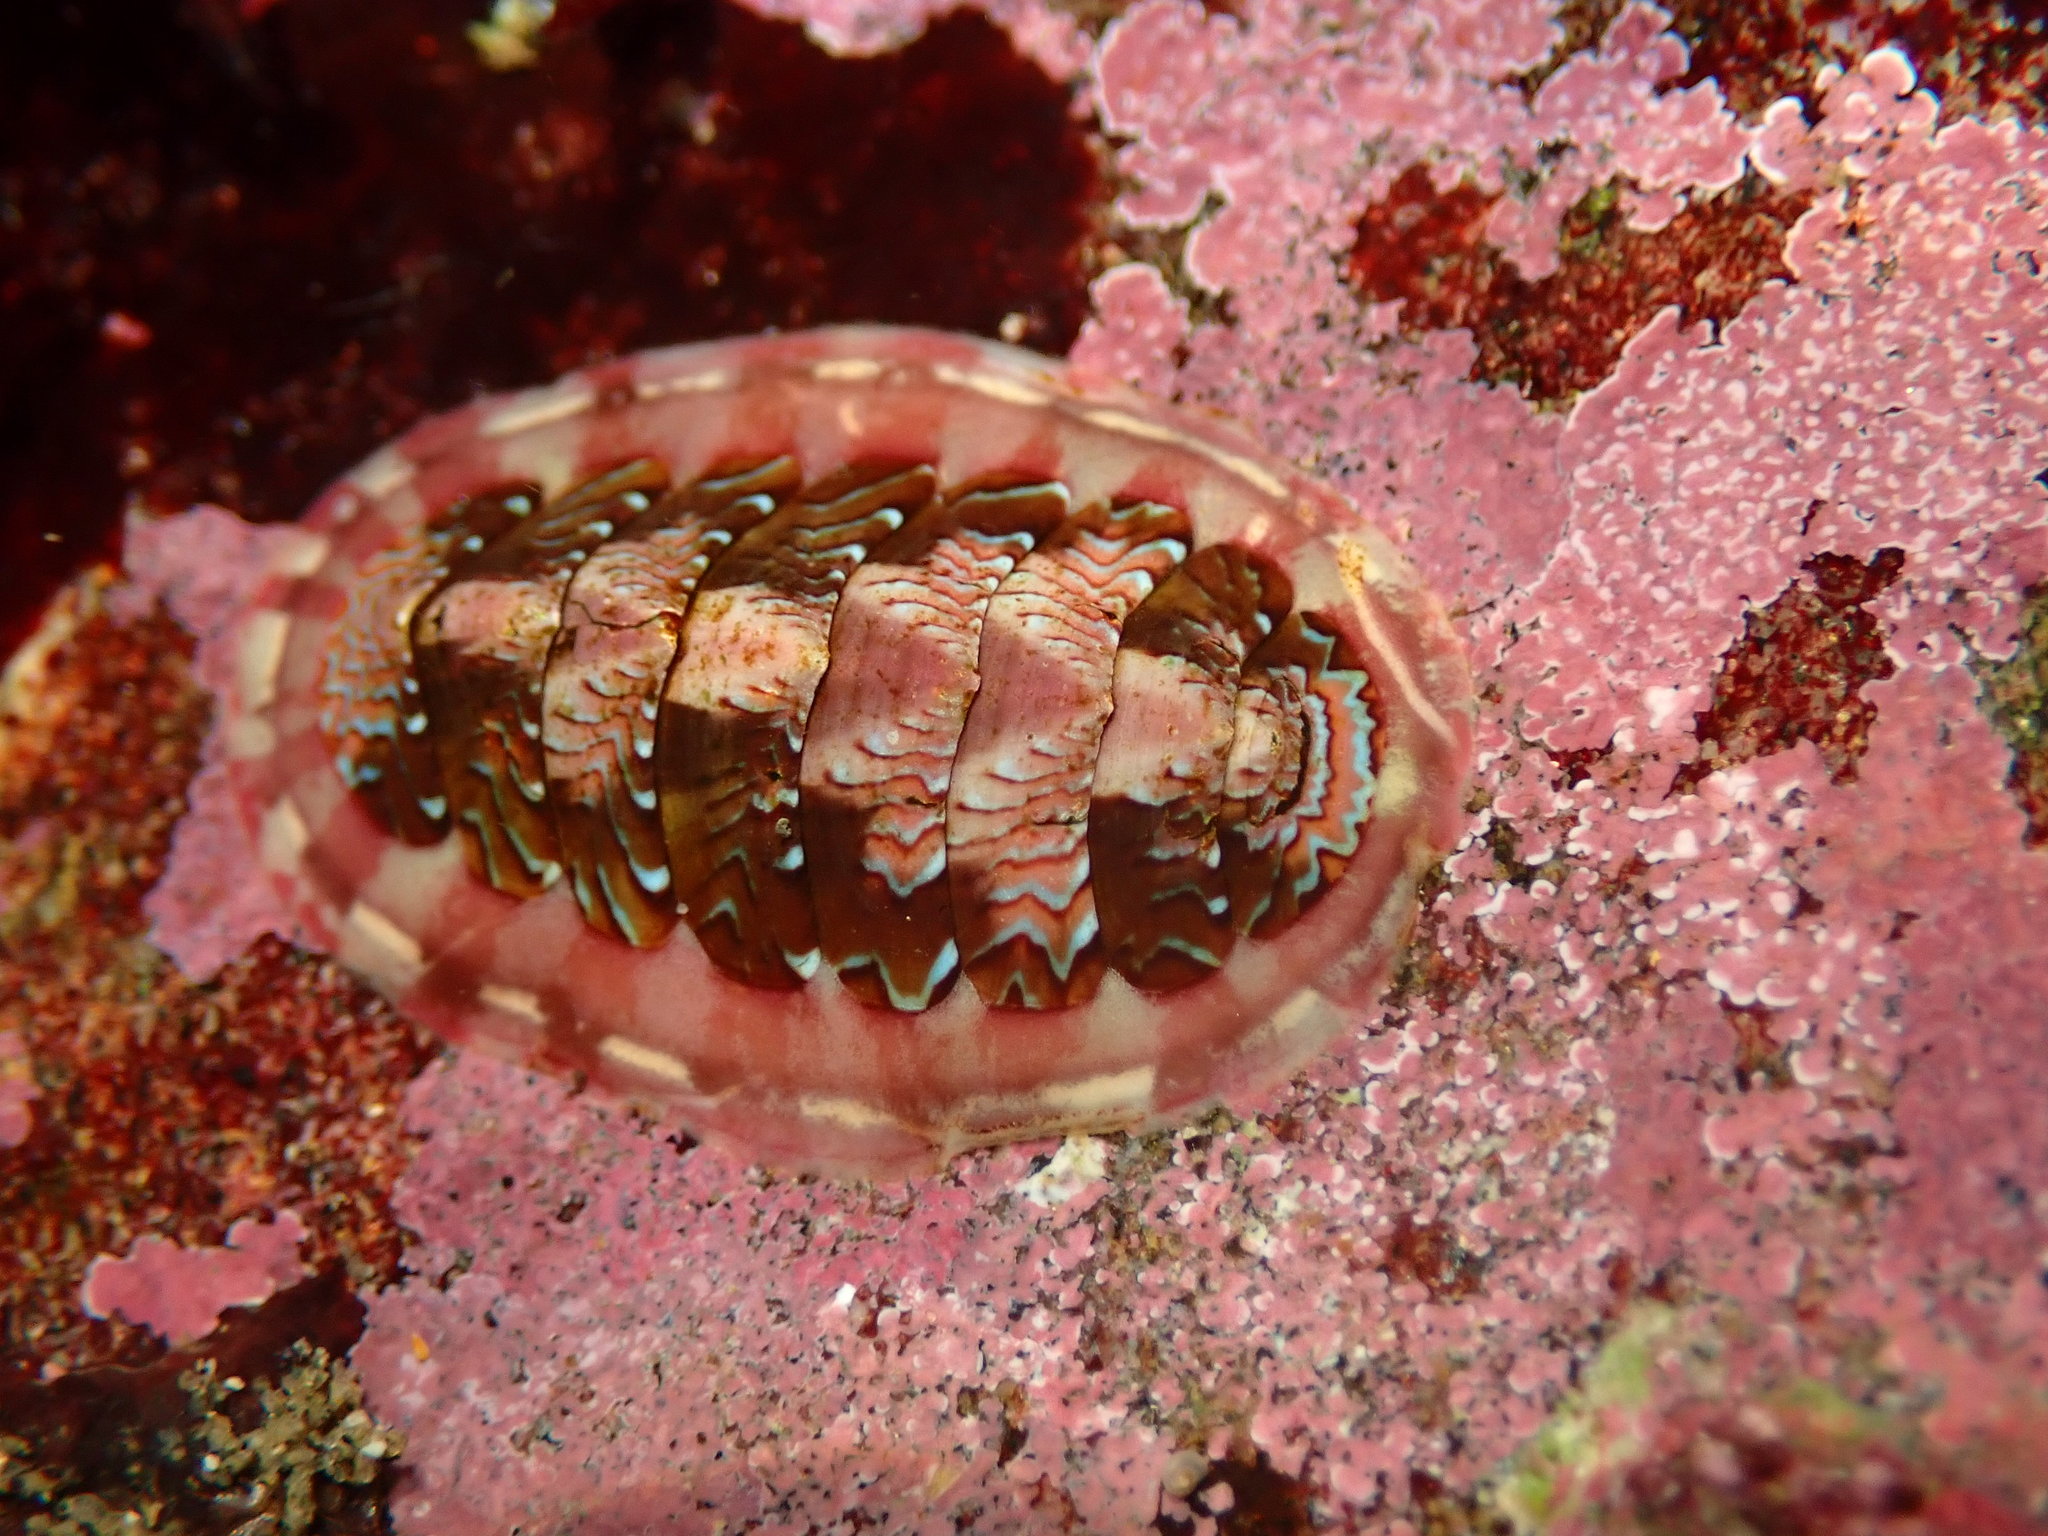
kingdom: Animalia
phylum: Mollusca
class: Polyplacophora
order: Chitonida
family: Tonicellidae
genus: Tonicella
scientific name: Tonicella lokii
